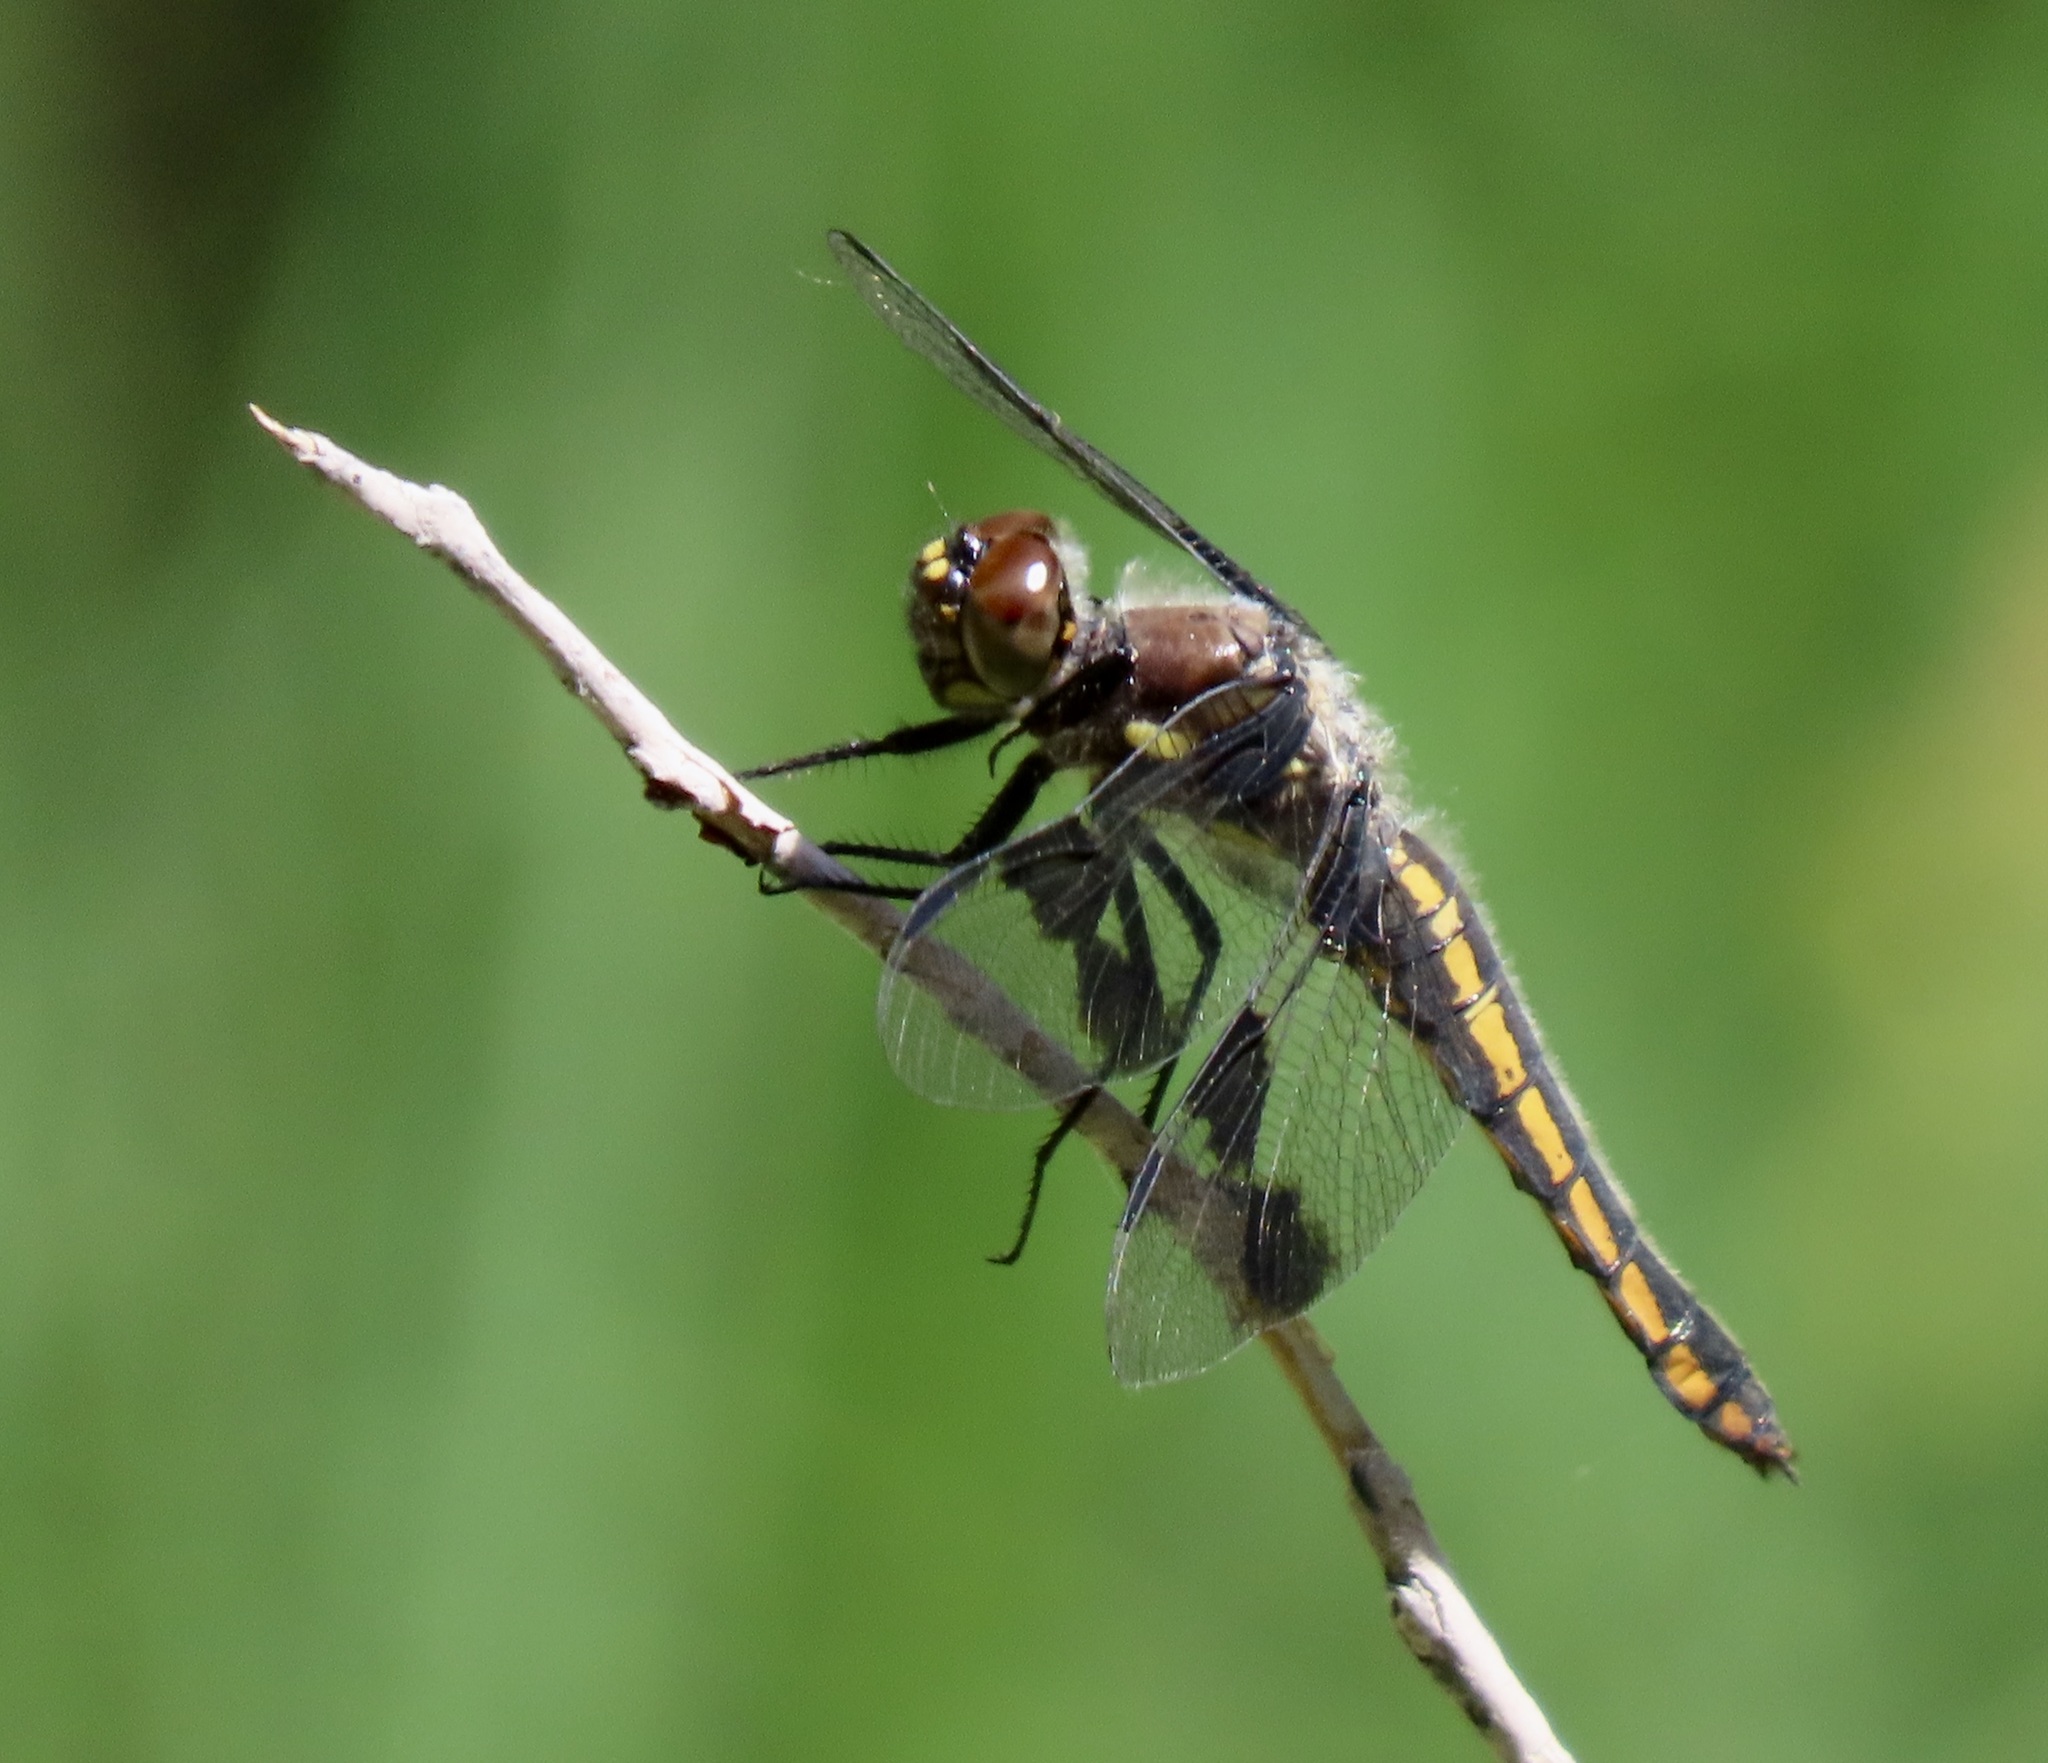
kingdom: Animalia
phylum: Arthropoda
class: Insecta
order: Odonata
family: Libellulidae
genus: Libellula
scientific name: Libellula forensis
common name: Eight-spotted skimmer
